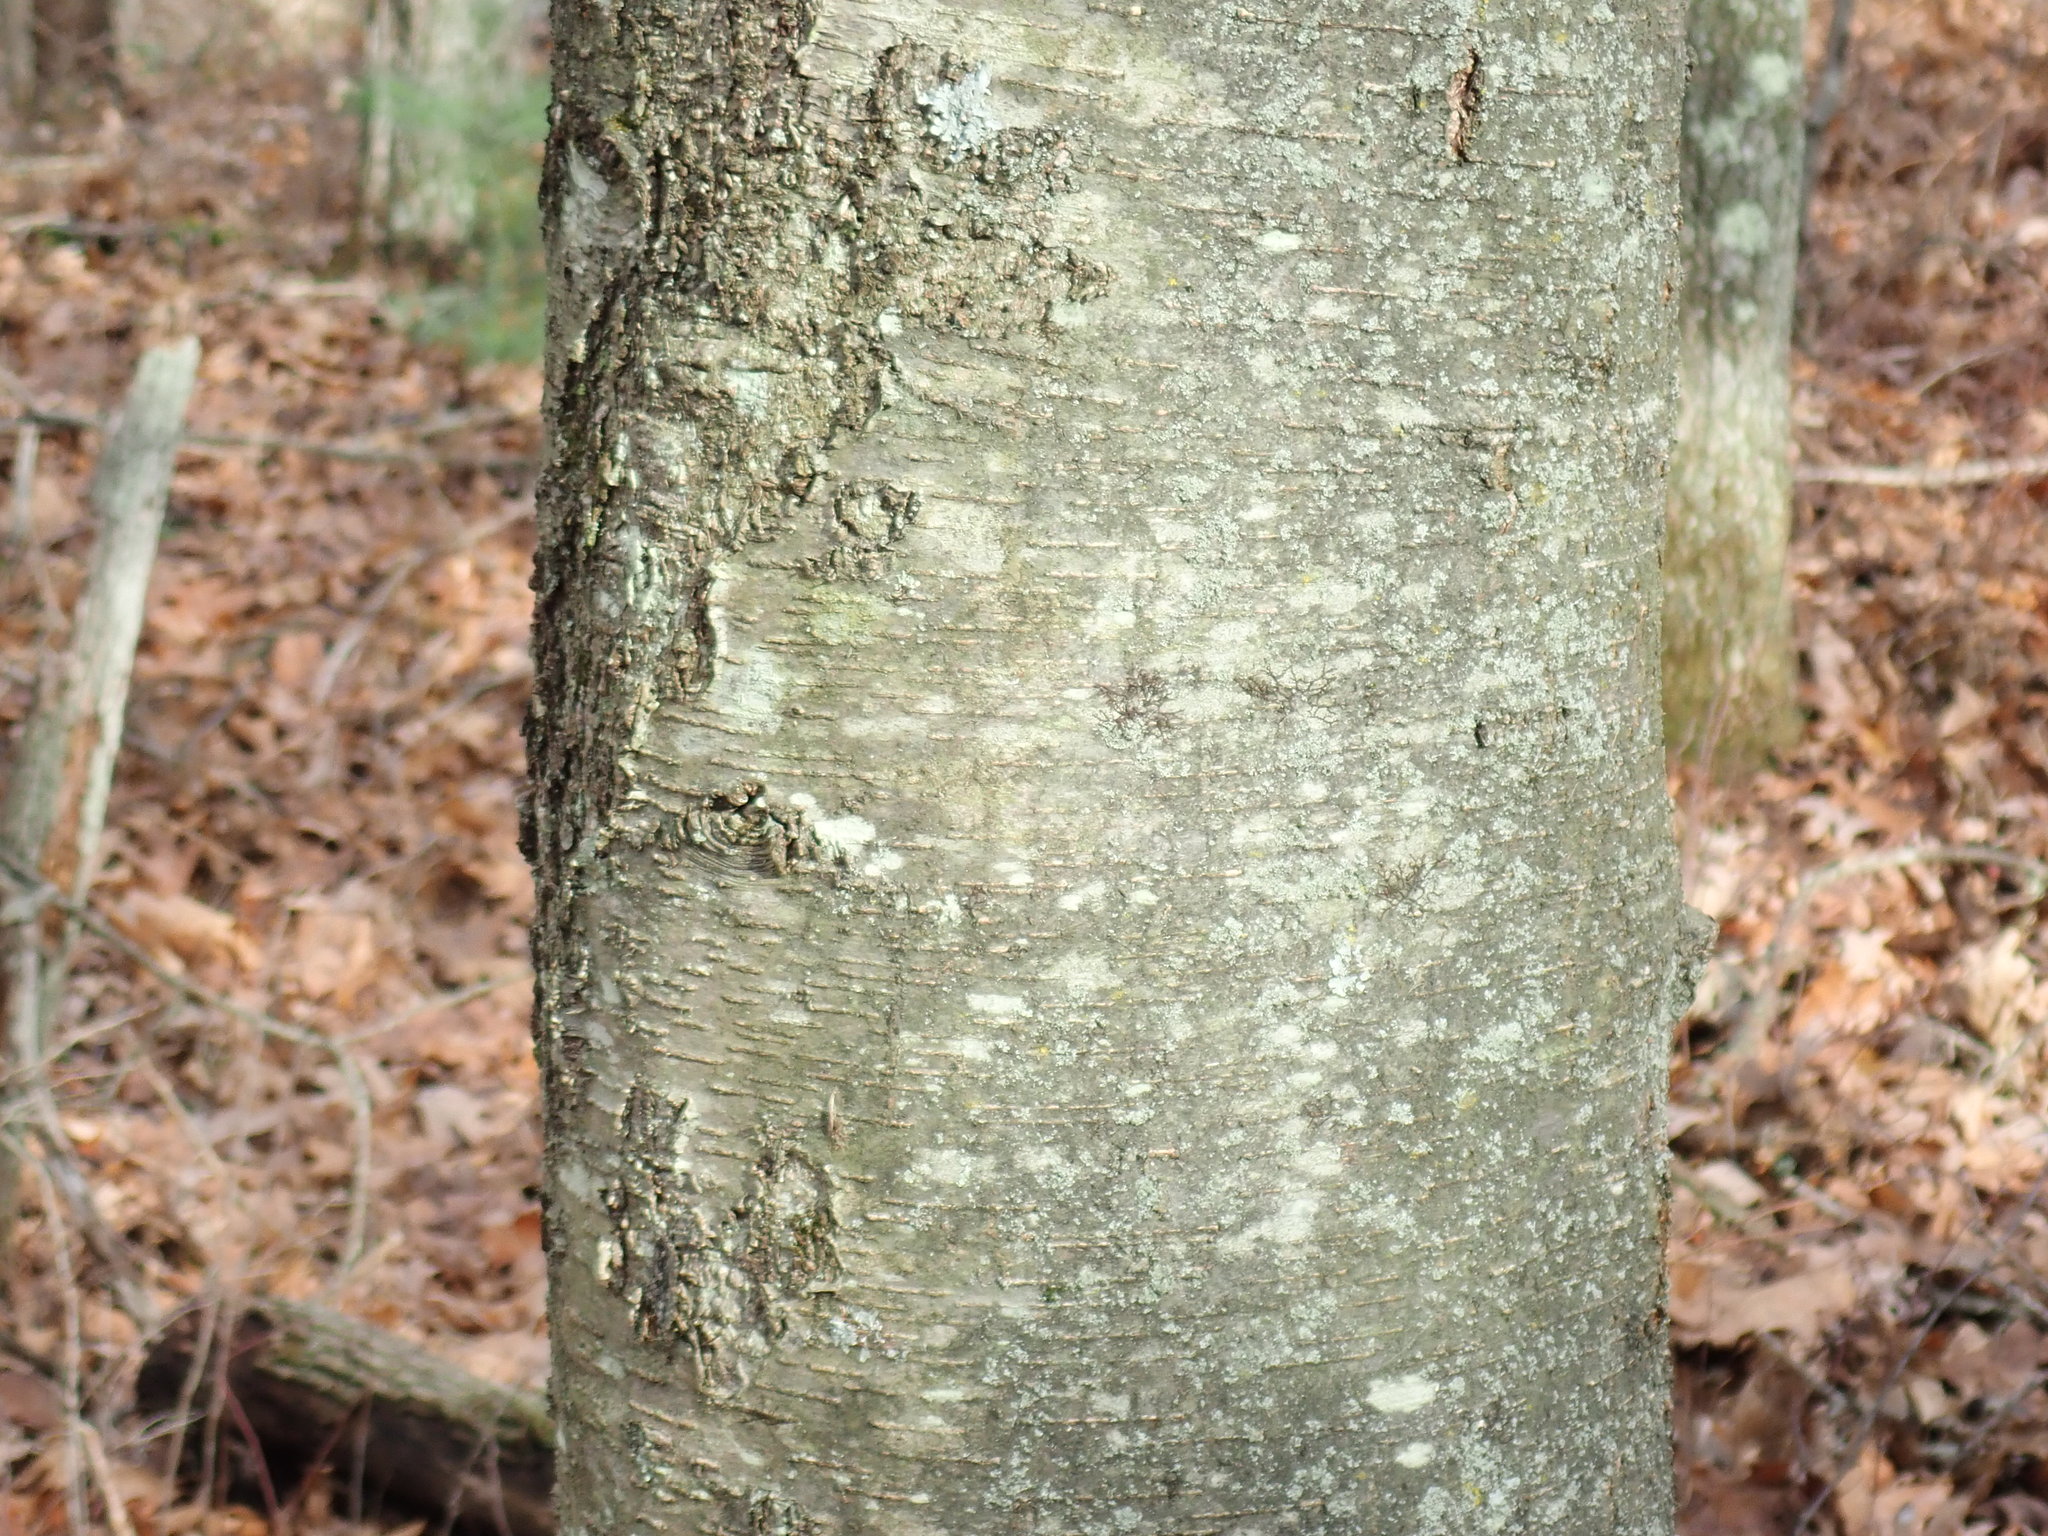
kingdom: Plantae
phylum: Tracheophyta
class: Magnoliopsida
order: Fagales
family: Betulaceae
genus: Betula
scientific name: Betula lenta
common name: Black birch
